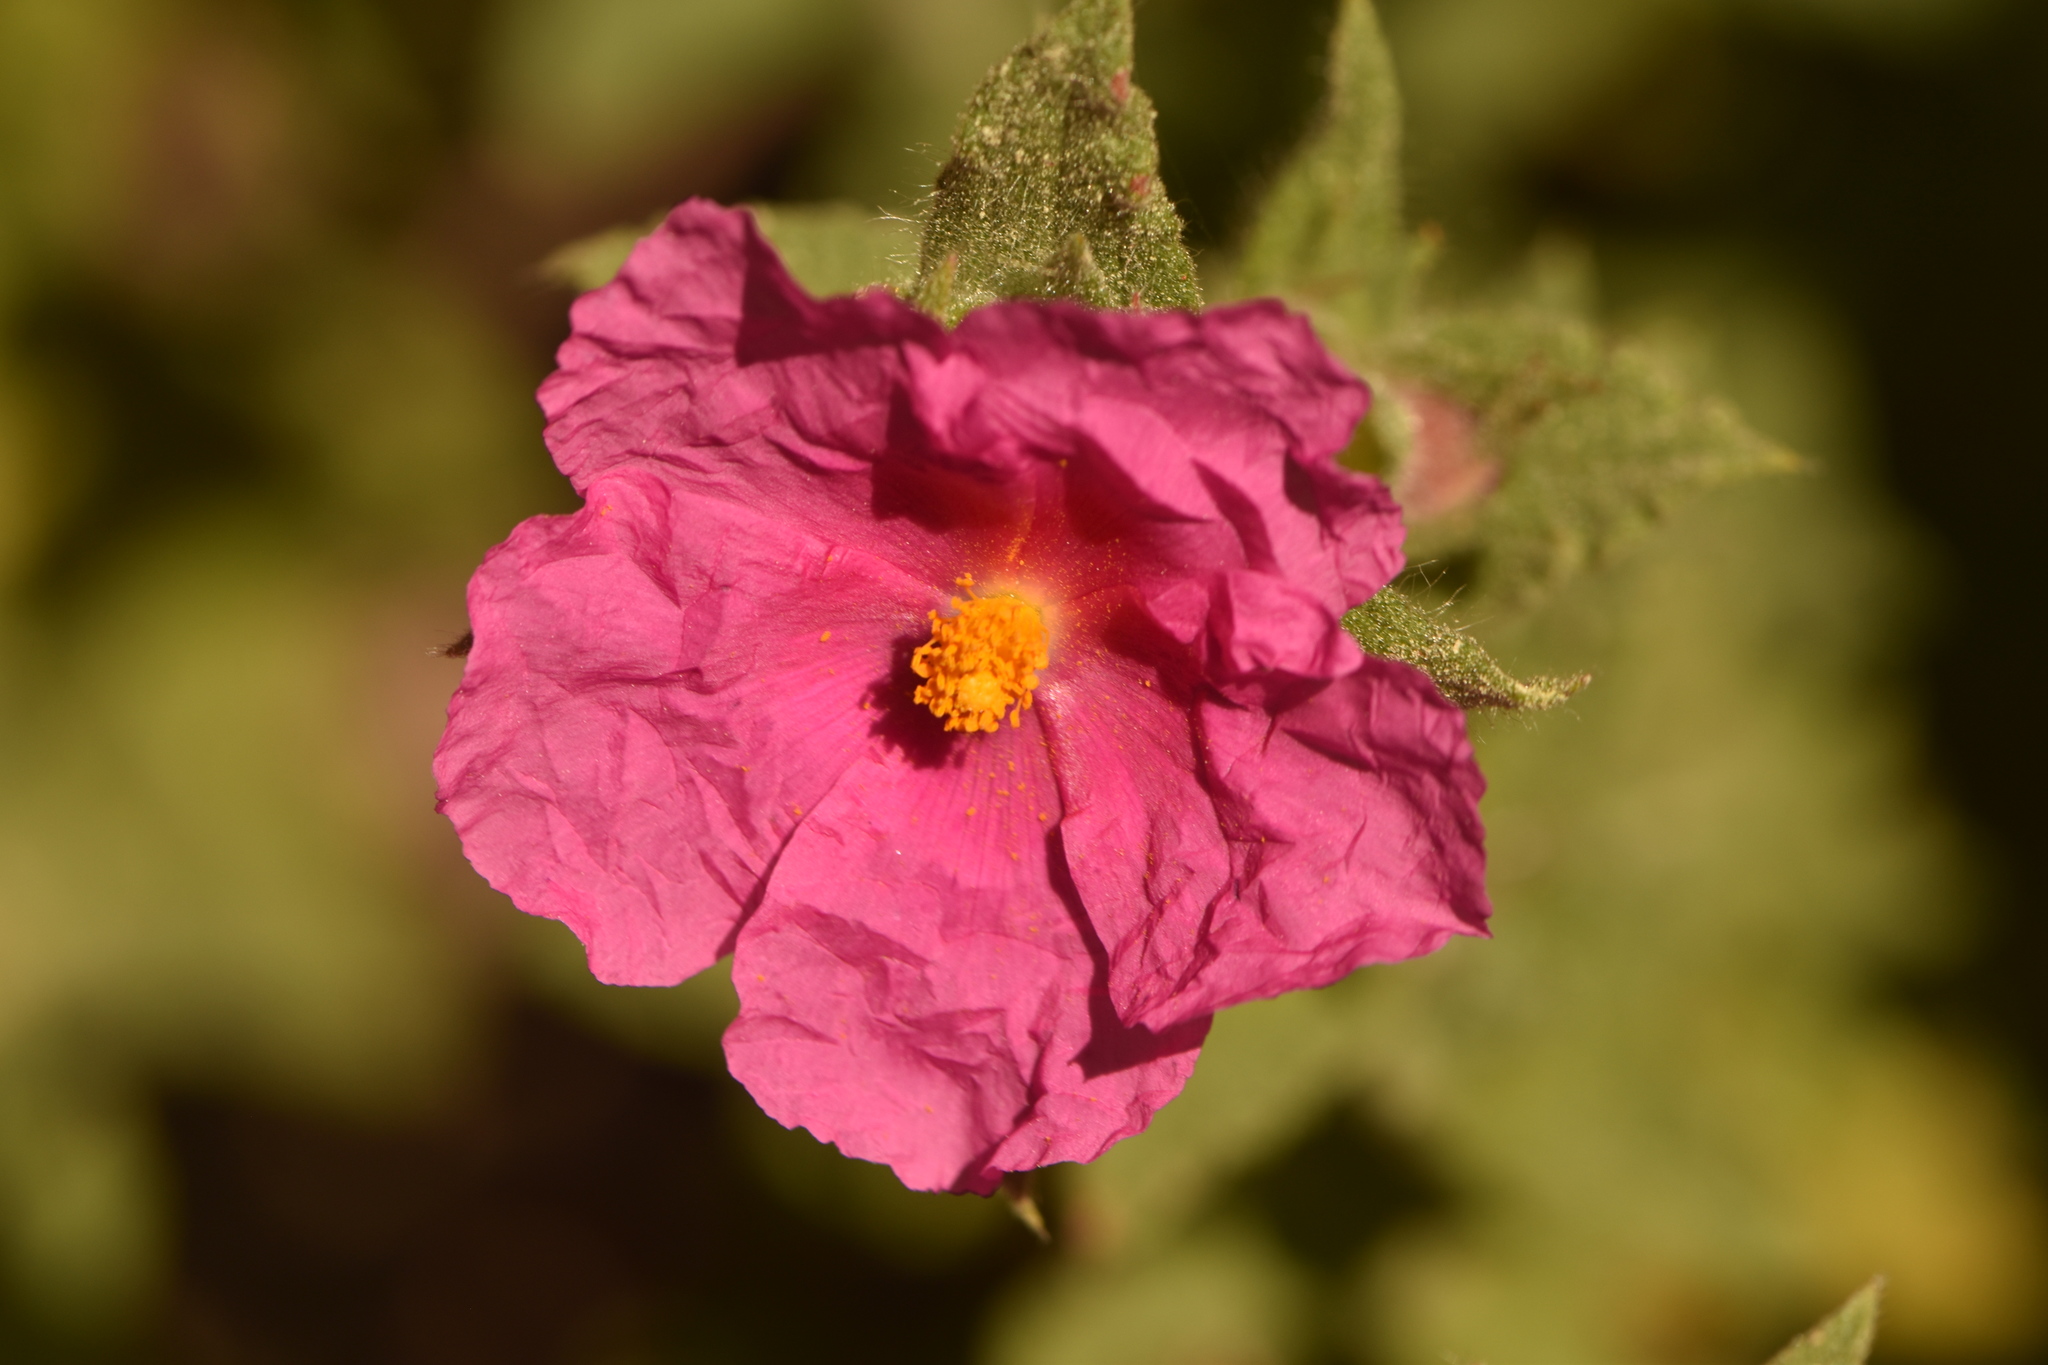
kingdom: Plantae
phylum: Tracheophyta
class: Magnoliopsida
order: Malvales
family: Cistaceae
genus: Cistus
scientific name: Cistus crispus
